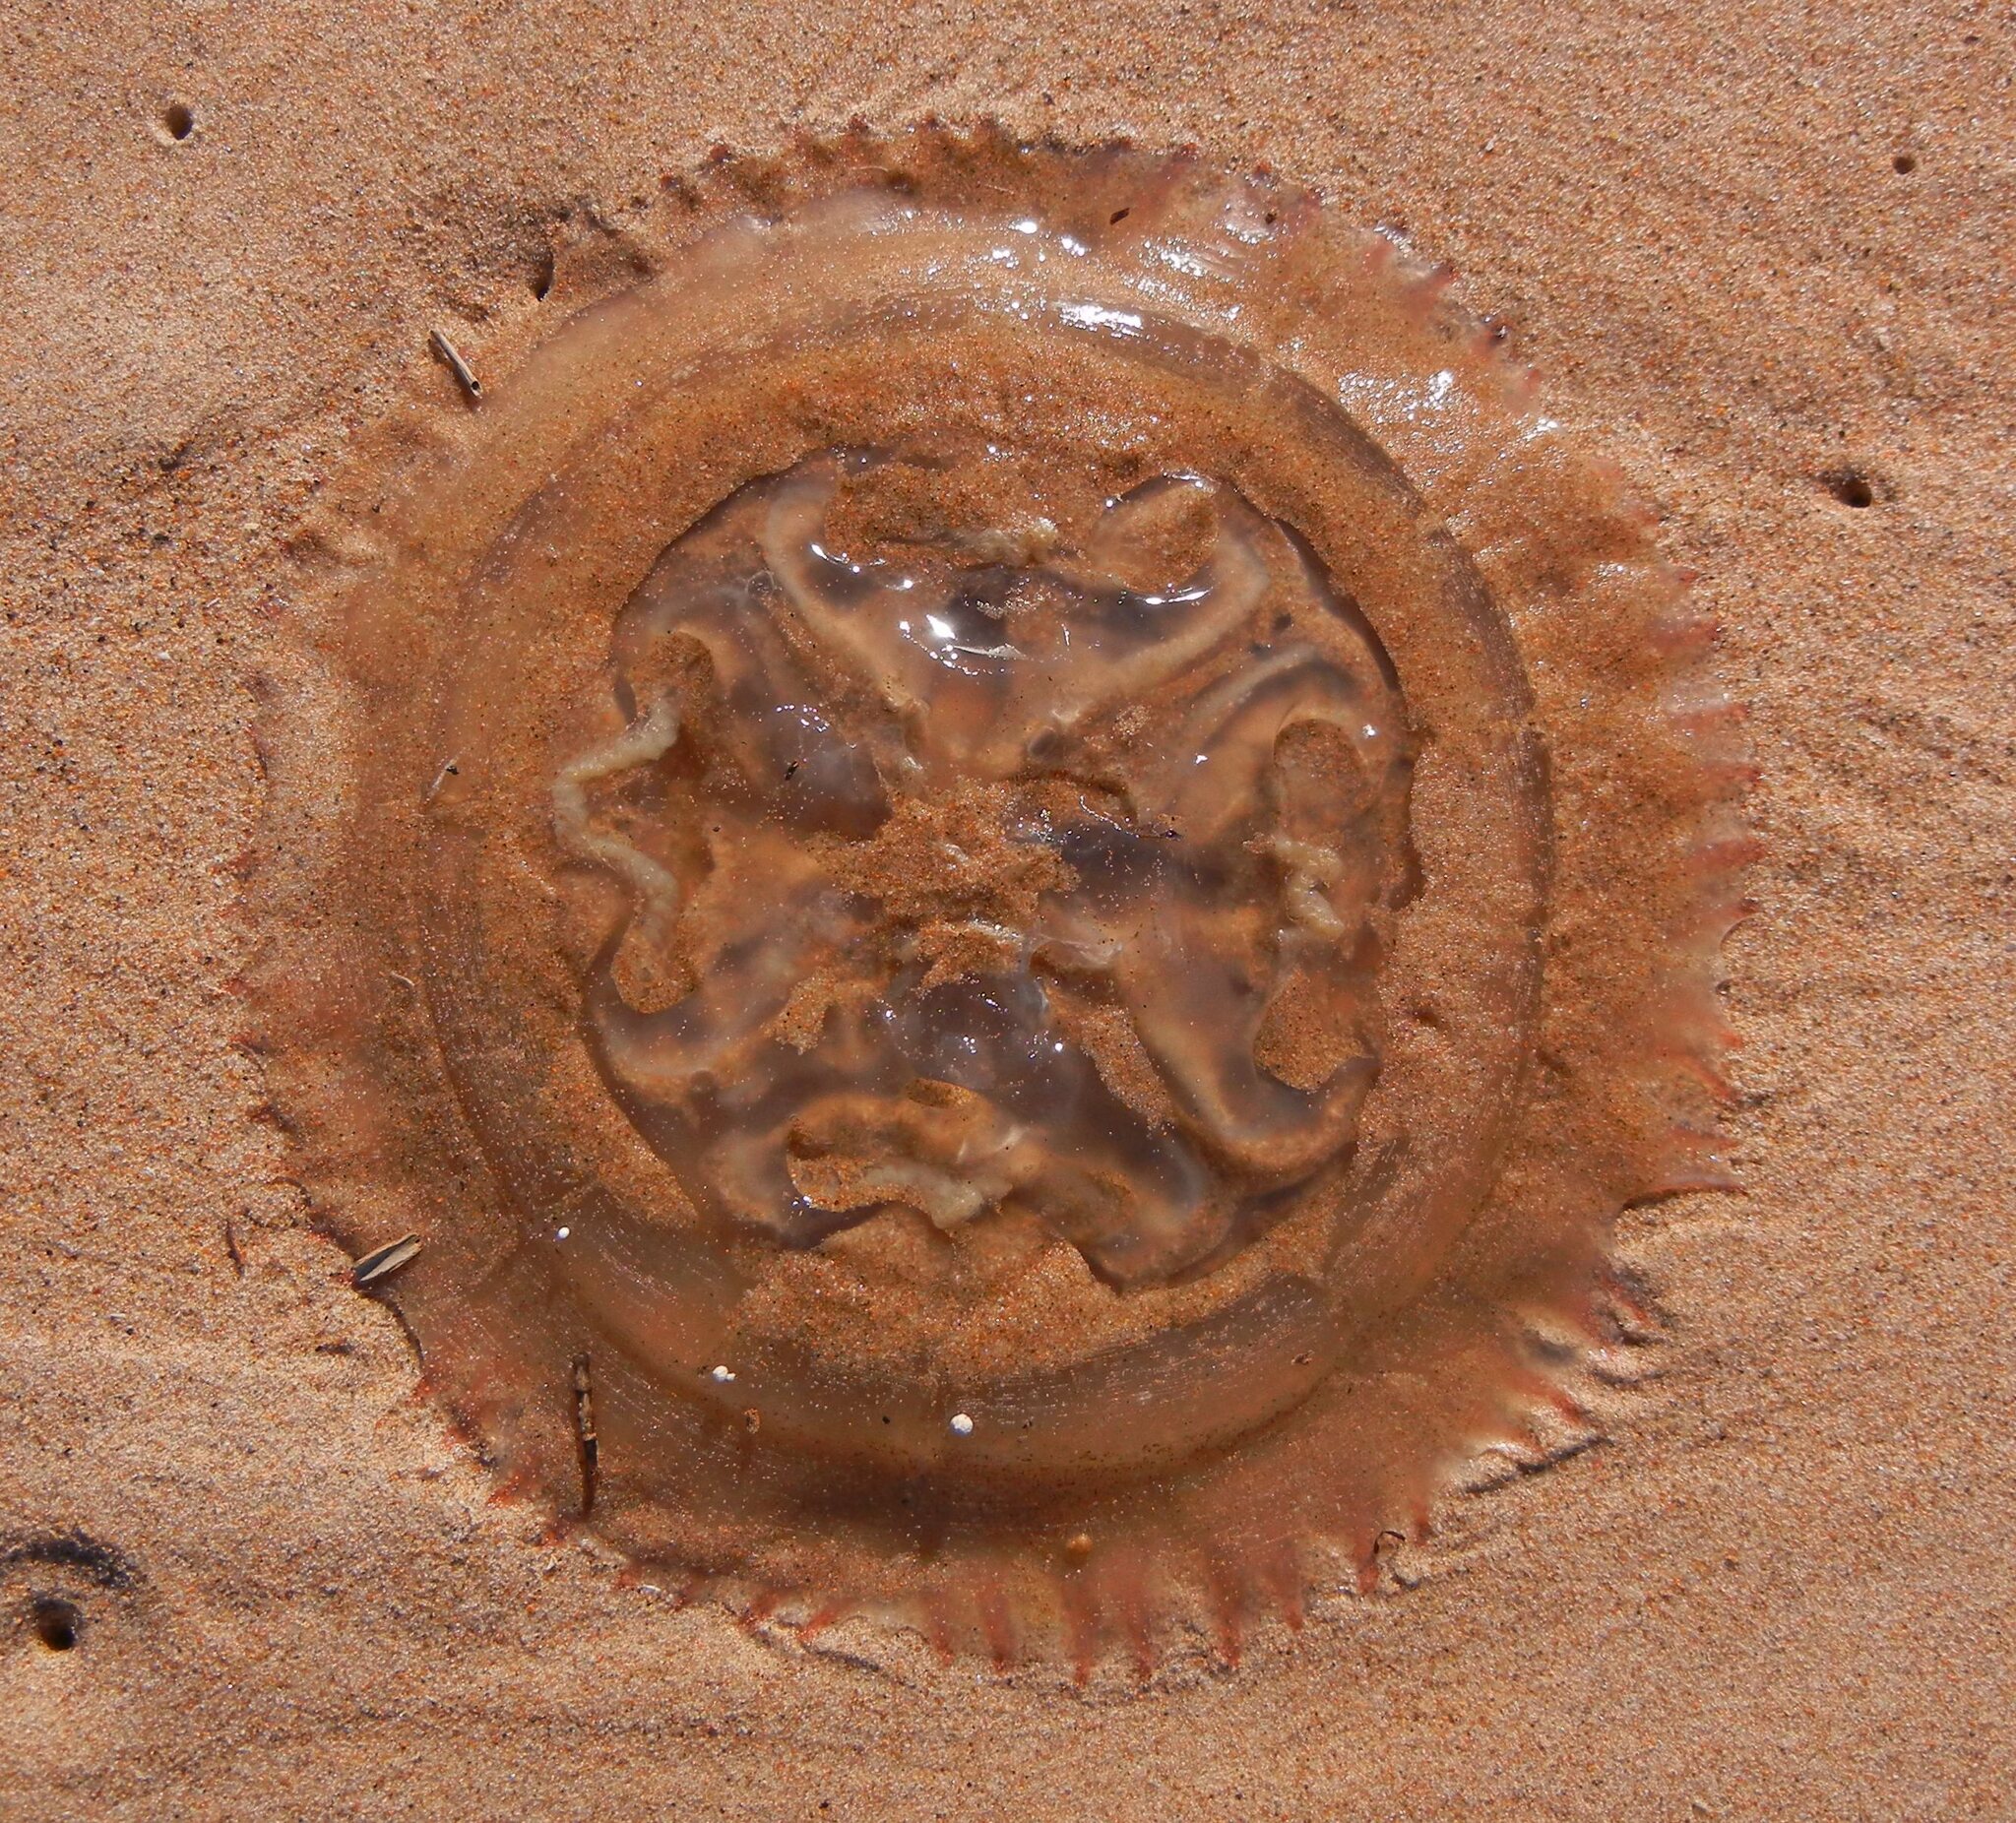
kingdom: Animalia
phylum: Cnidaria
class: Scyphozoa
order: Rhizostomeae
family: Catostylidae
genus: Catostylus
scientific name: Catostylus tagi
